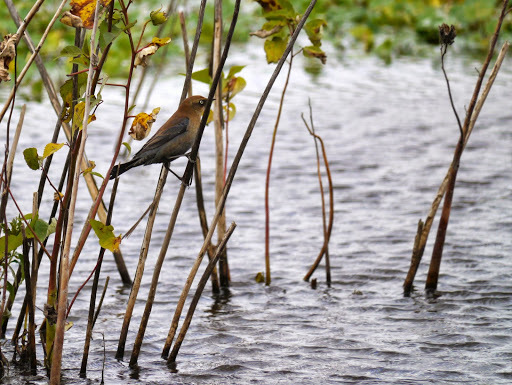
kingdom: Animalia
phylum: Chordata
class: Aves
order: Passeriformes
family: Icteridae
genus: Euphagus
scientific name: Euphagus carolinus
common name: Rusty blackbird
